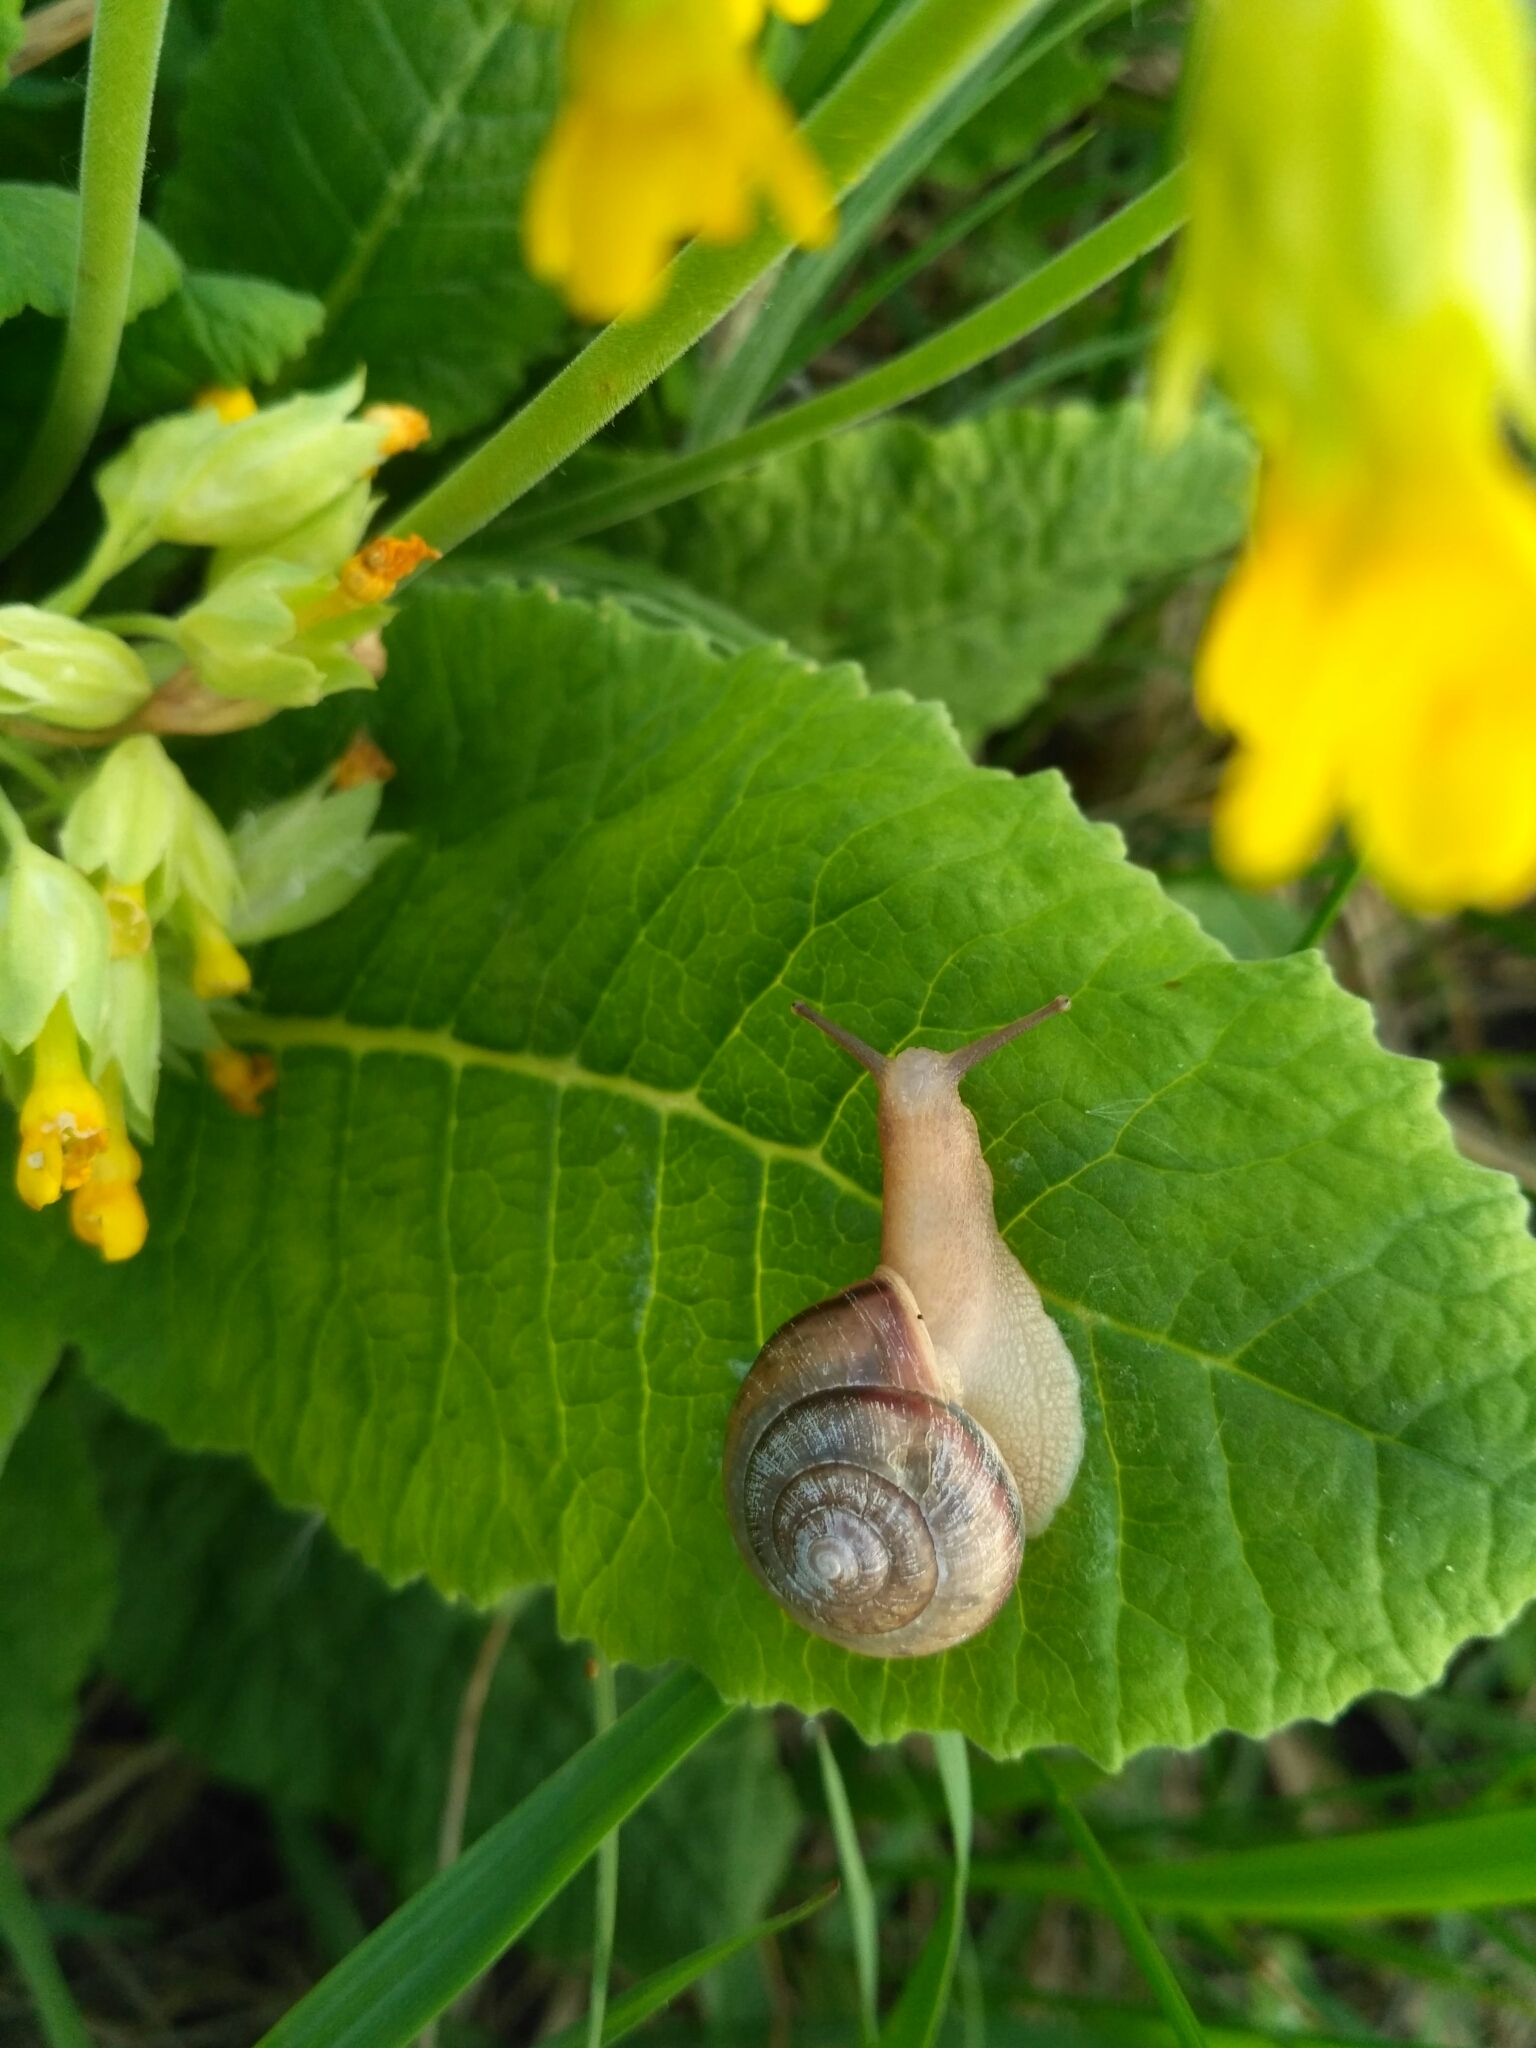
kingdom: Animalia
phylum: Mollusca
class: Gastropoda
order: Stylommatophora
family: Camaenidae
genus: Fruticicola
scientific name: Fruticicola fruticum
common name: Bush snail
